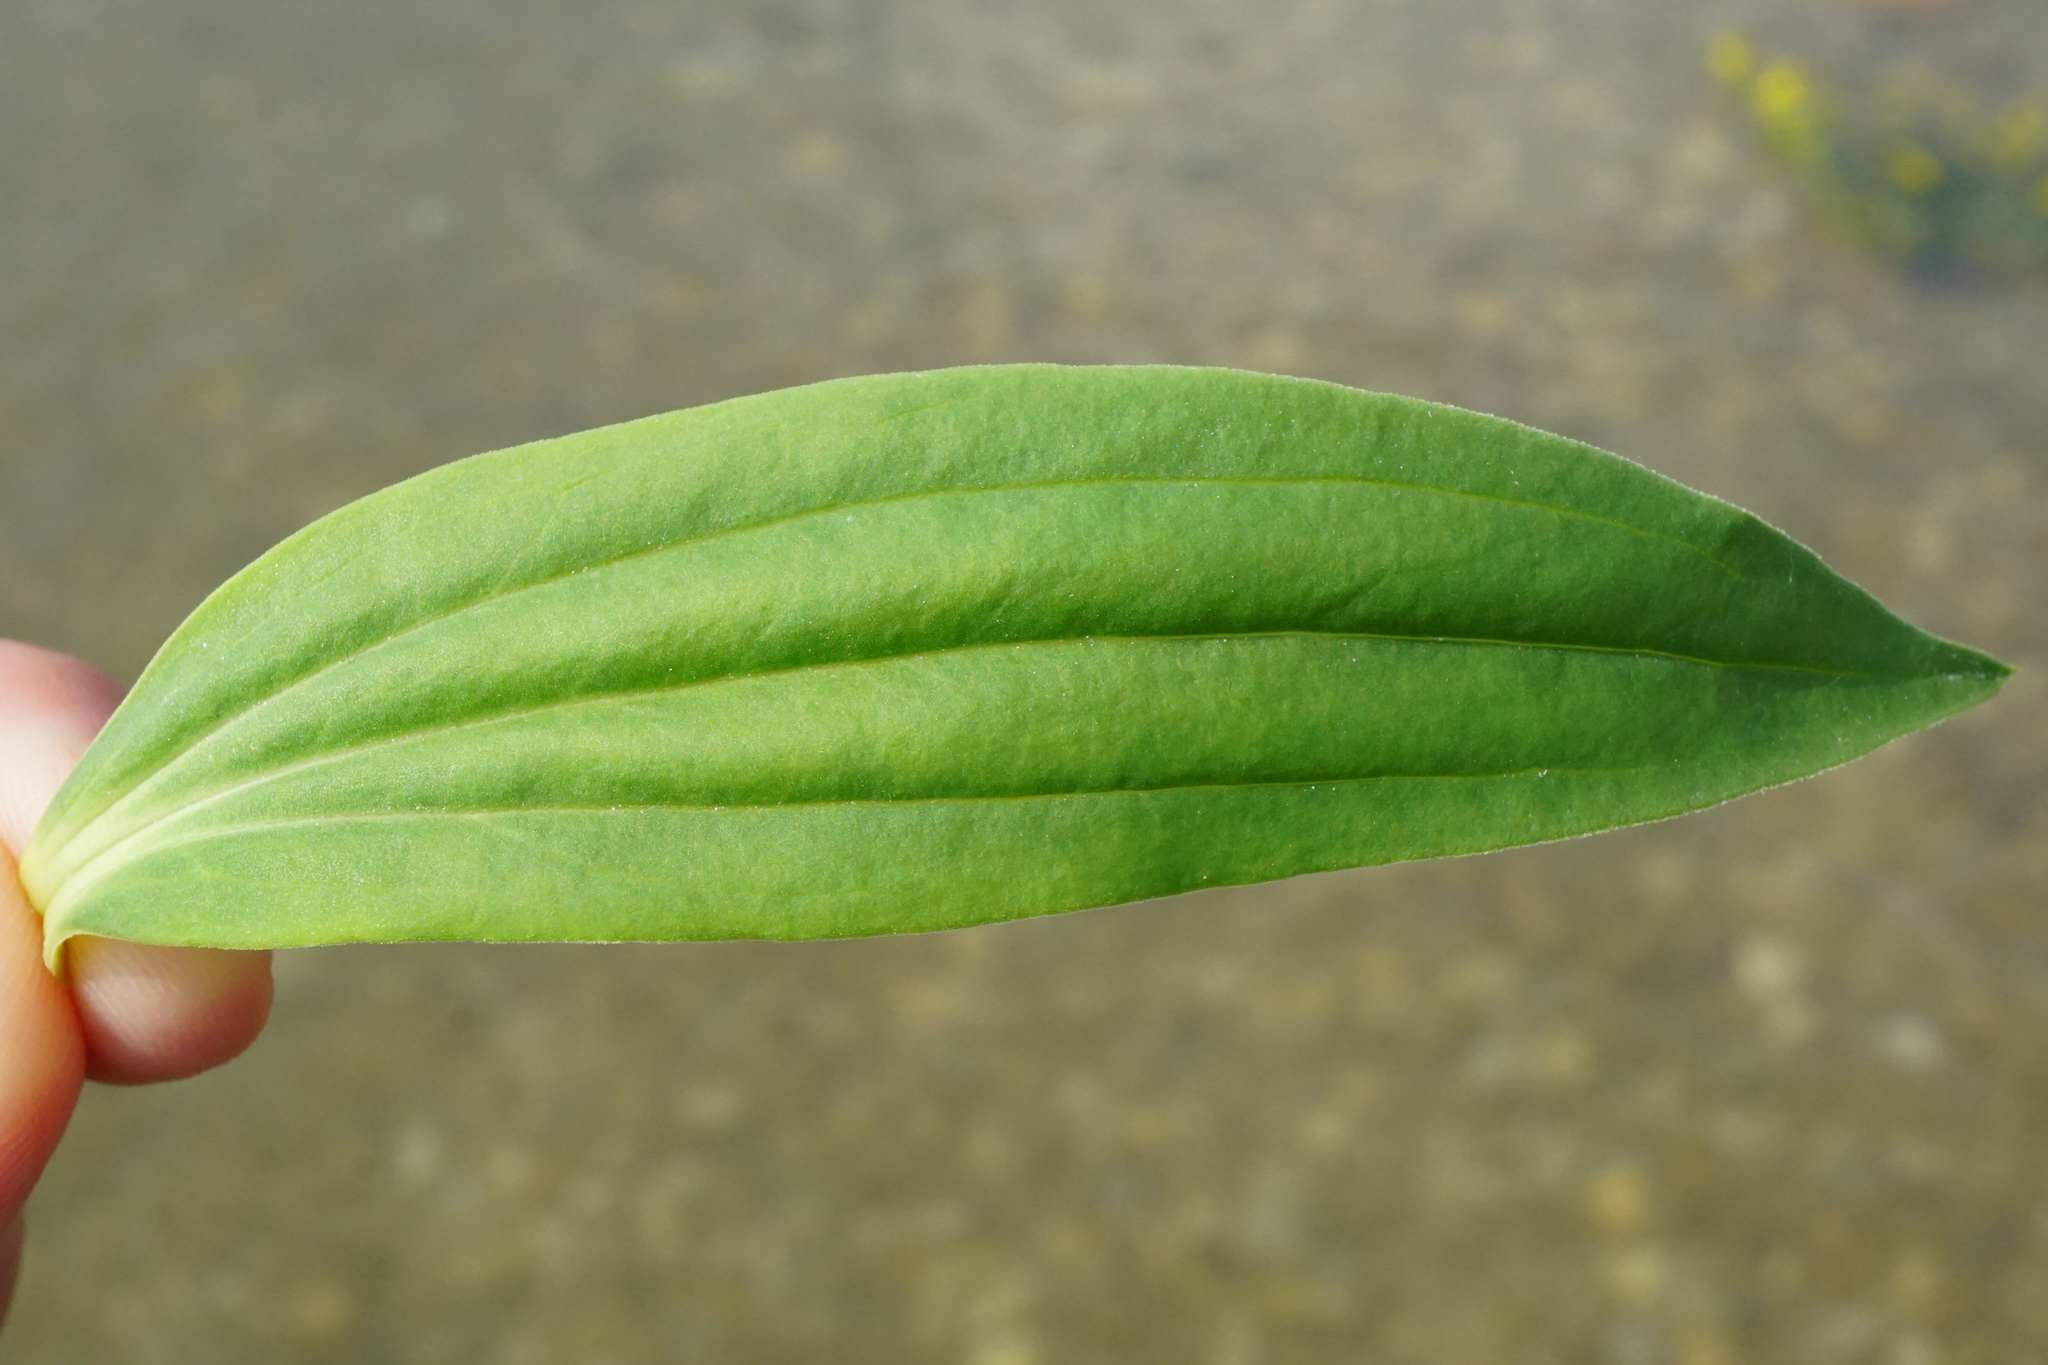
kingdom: Plantae
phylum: Tracheophyta
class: Magnoliopsida
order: Caryophyllales
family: Caryophyllaceae
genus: Saponaria
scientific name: Saponaria officinalis
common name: Soapwort
